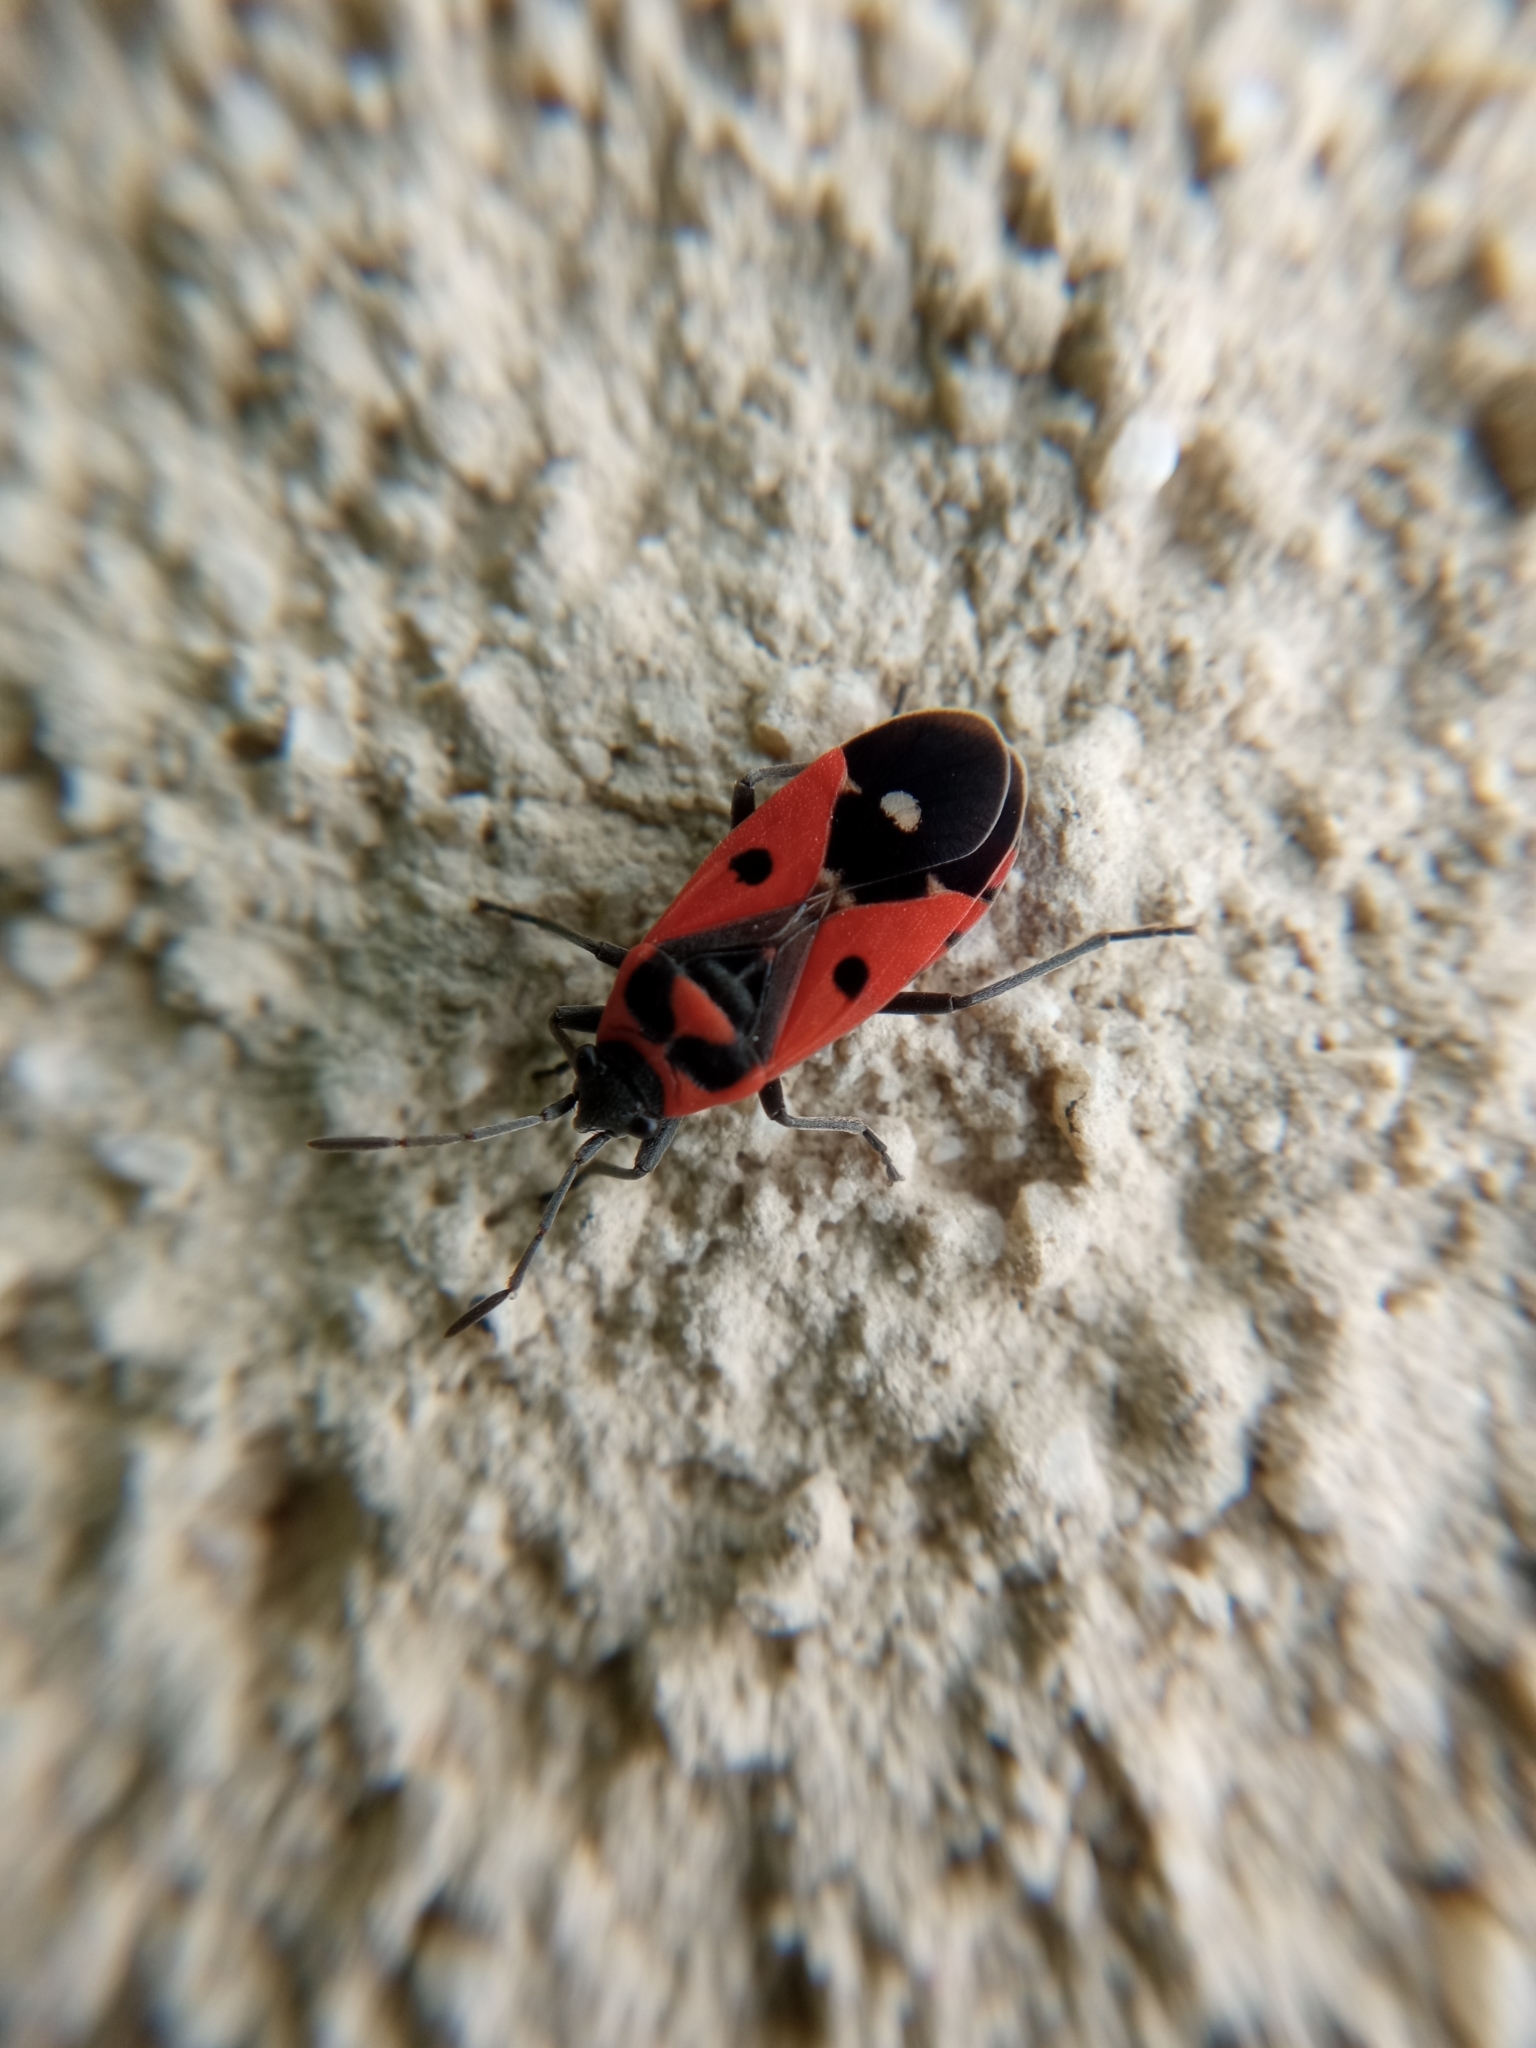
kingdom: Animalia
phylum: Arthropoda
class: Insecta
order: Hemiptera
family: Lygaeidae
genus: Melanocoryphus
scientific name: Melanocoryphus albomaculatus
